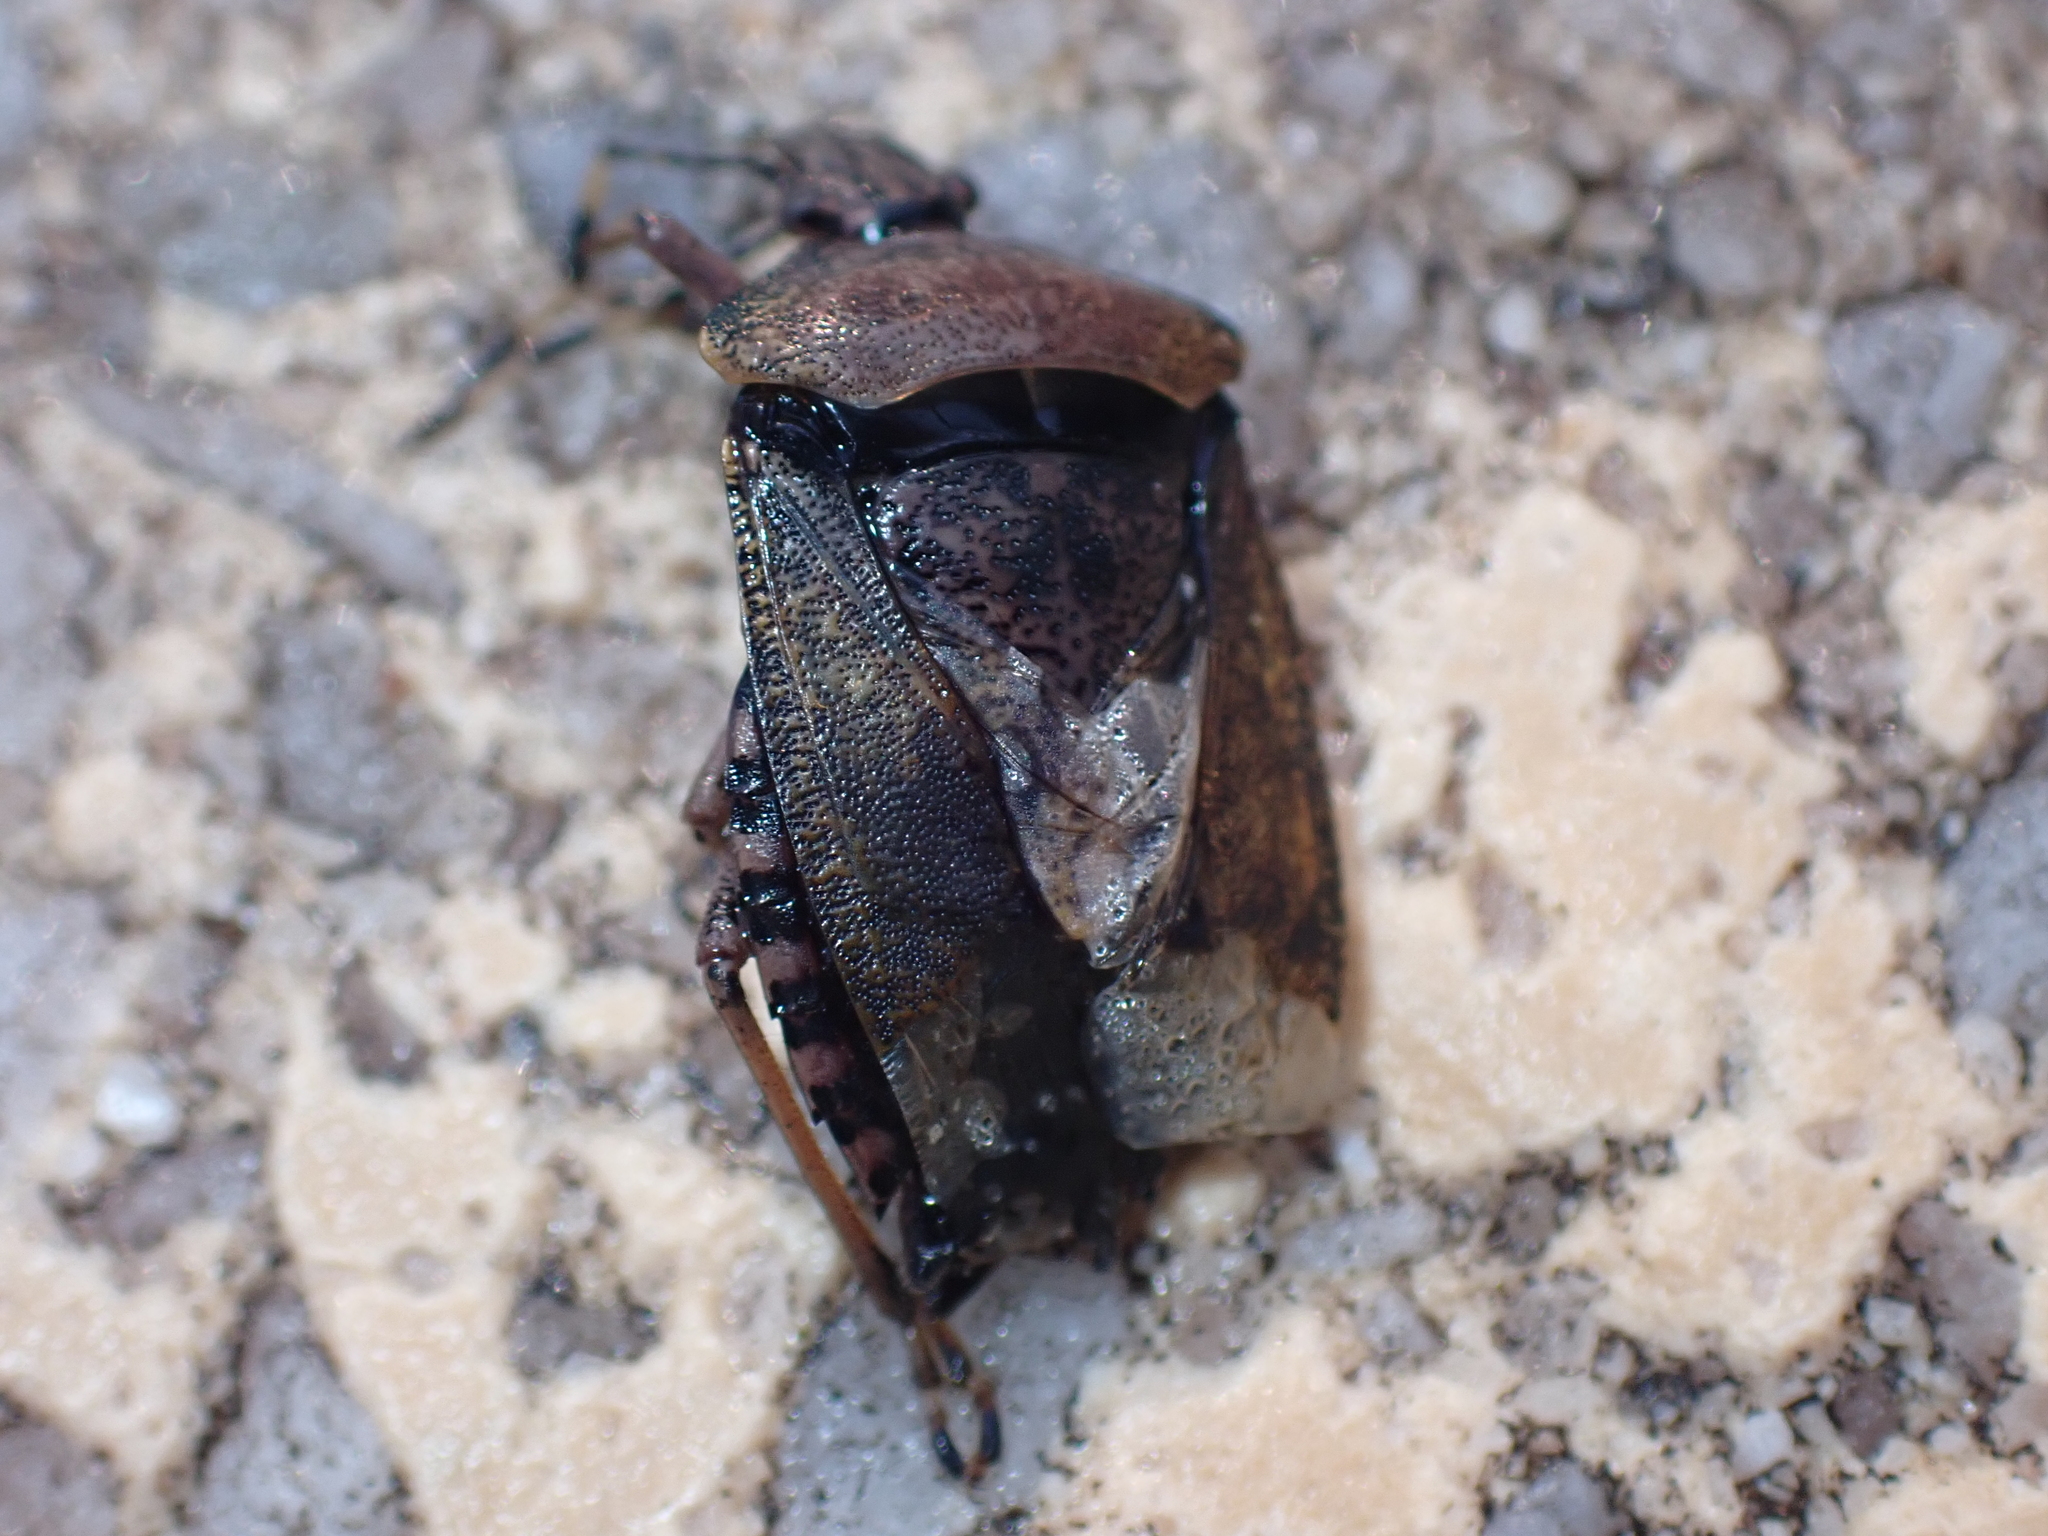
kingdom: Animalia
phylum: Arthropoda
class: Insecta
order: Hemiptera
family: Pentatomidae
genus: Rhaphigaster
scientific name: Rhaphigaster nebulosa
